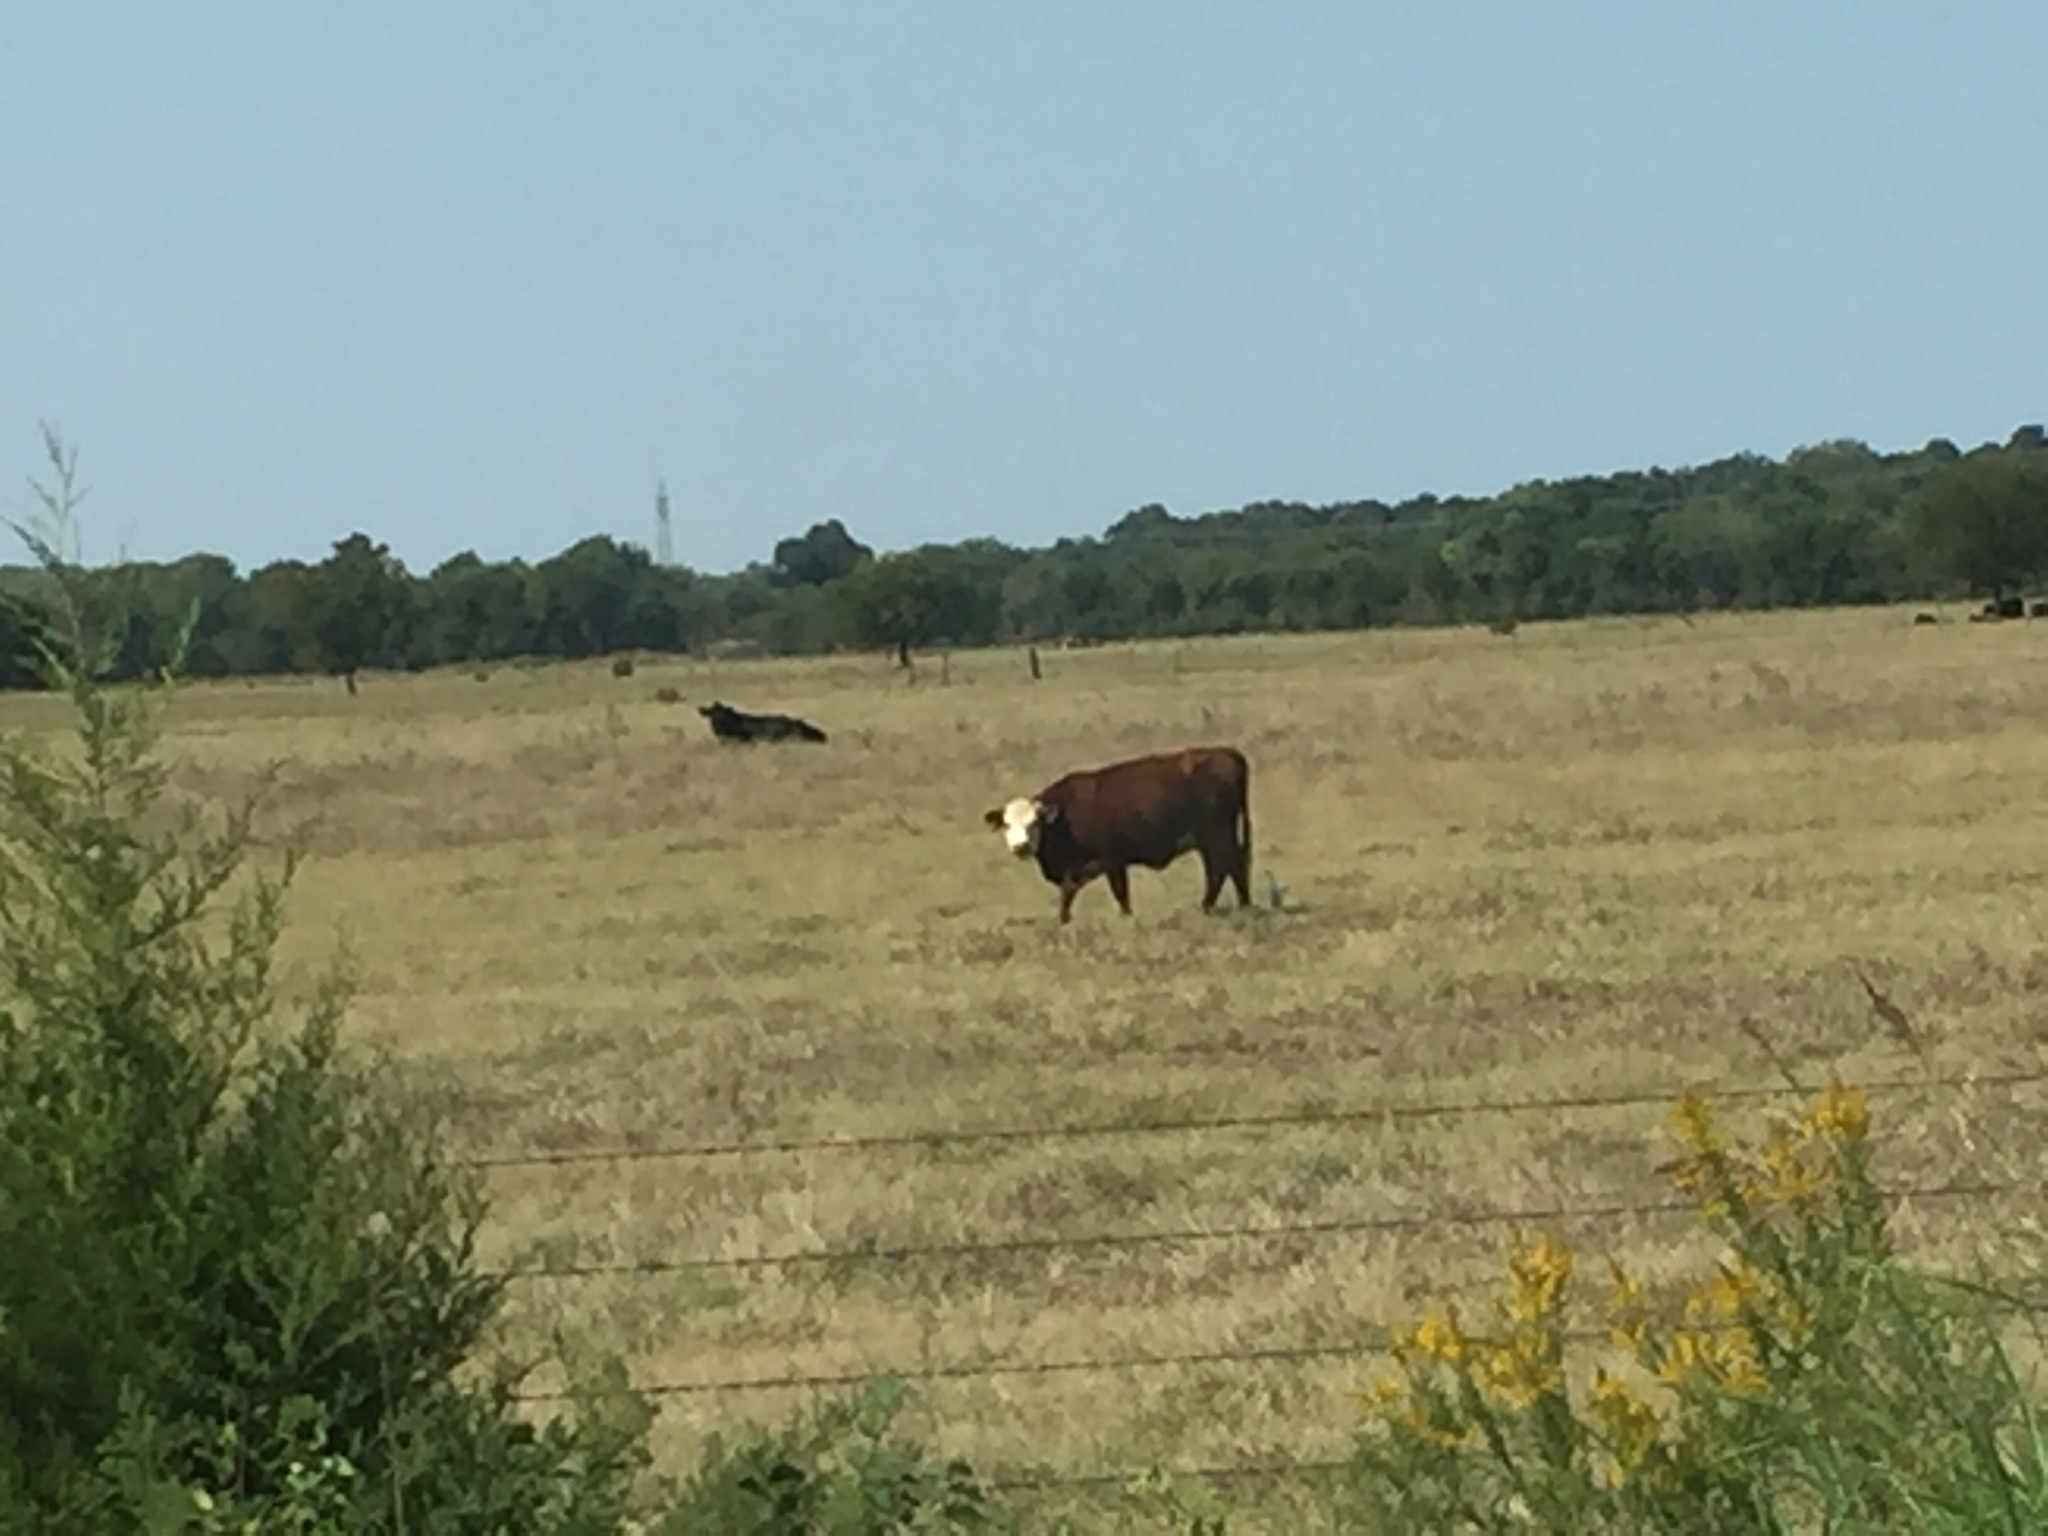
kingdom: Animalia
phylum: Chordata
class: Aves
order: Pelecaniformes
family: Ardeidae
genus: Bubulcus
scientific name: Bubulcus ibis
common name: Cattle egret
